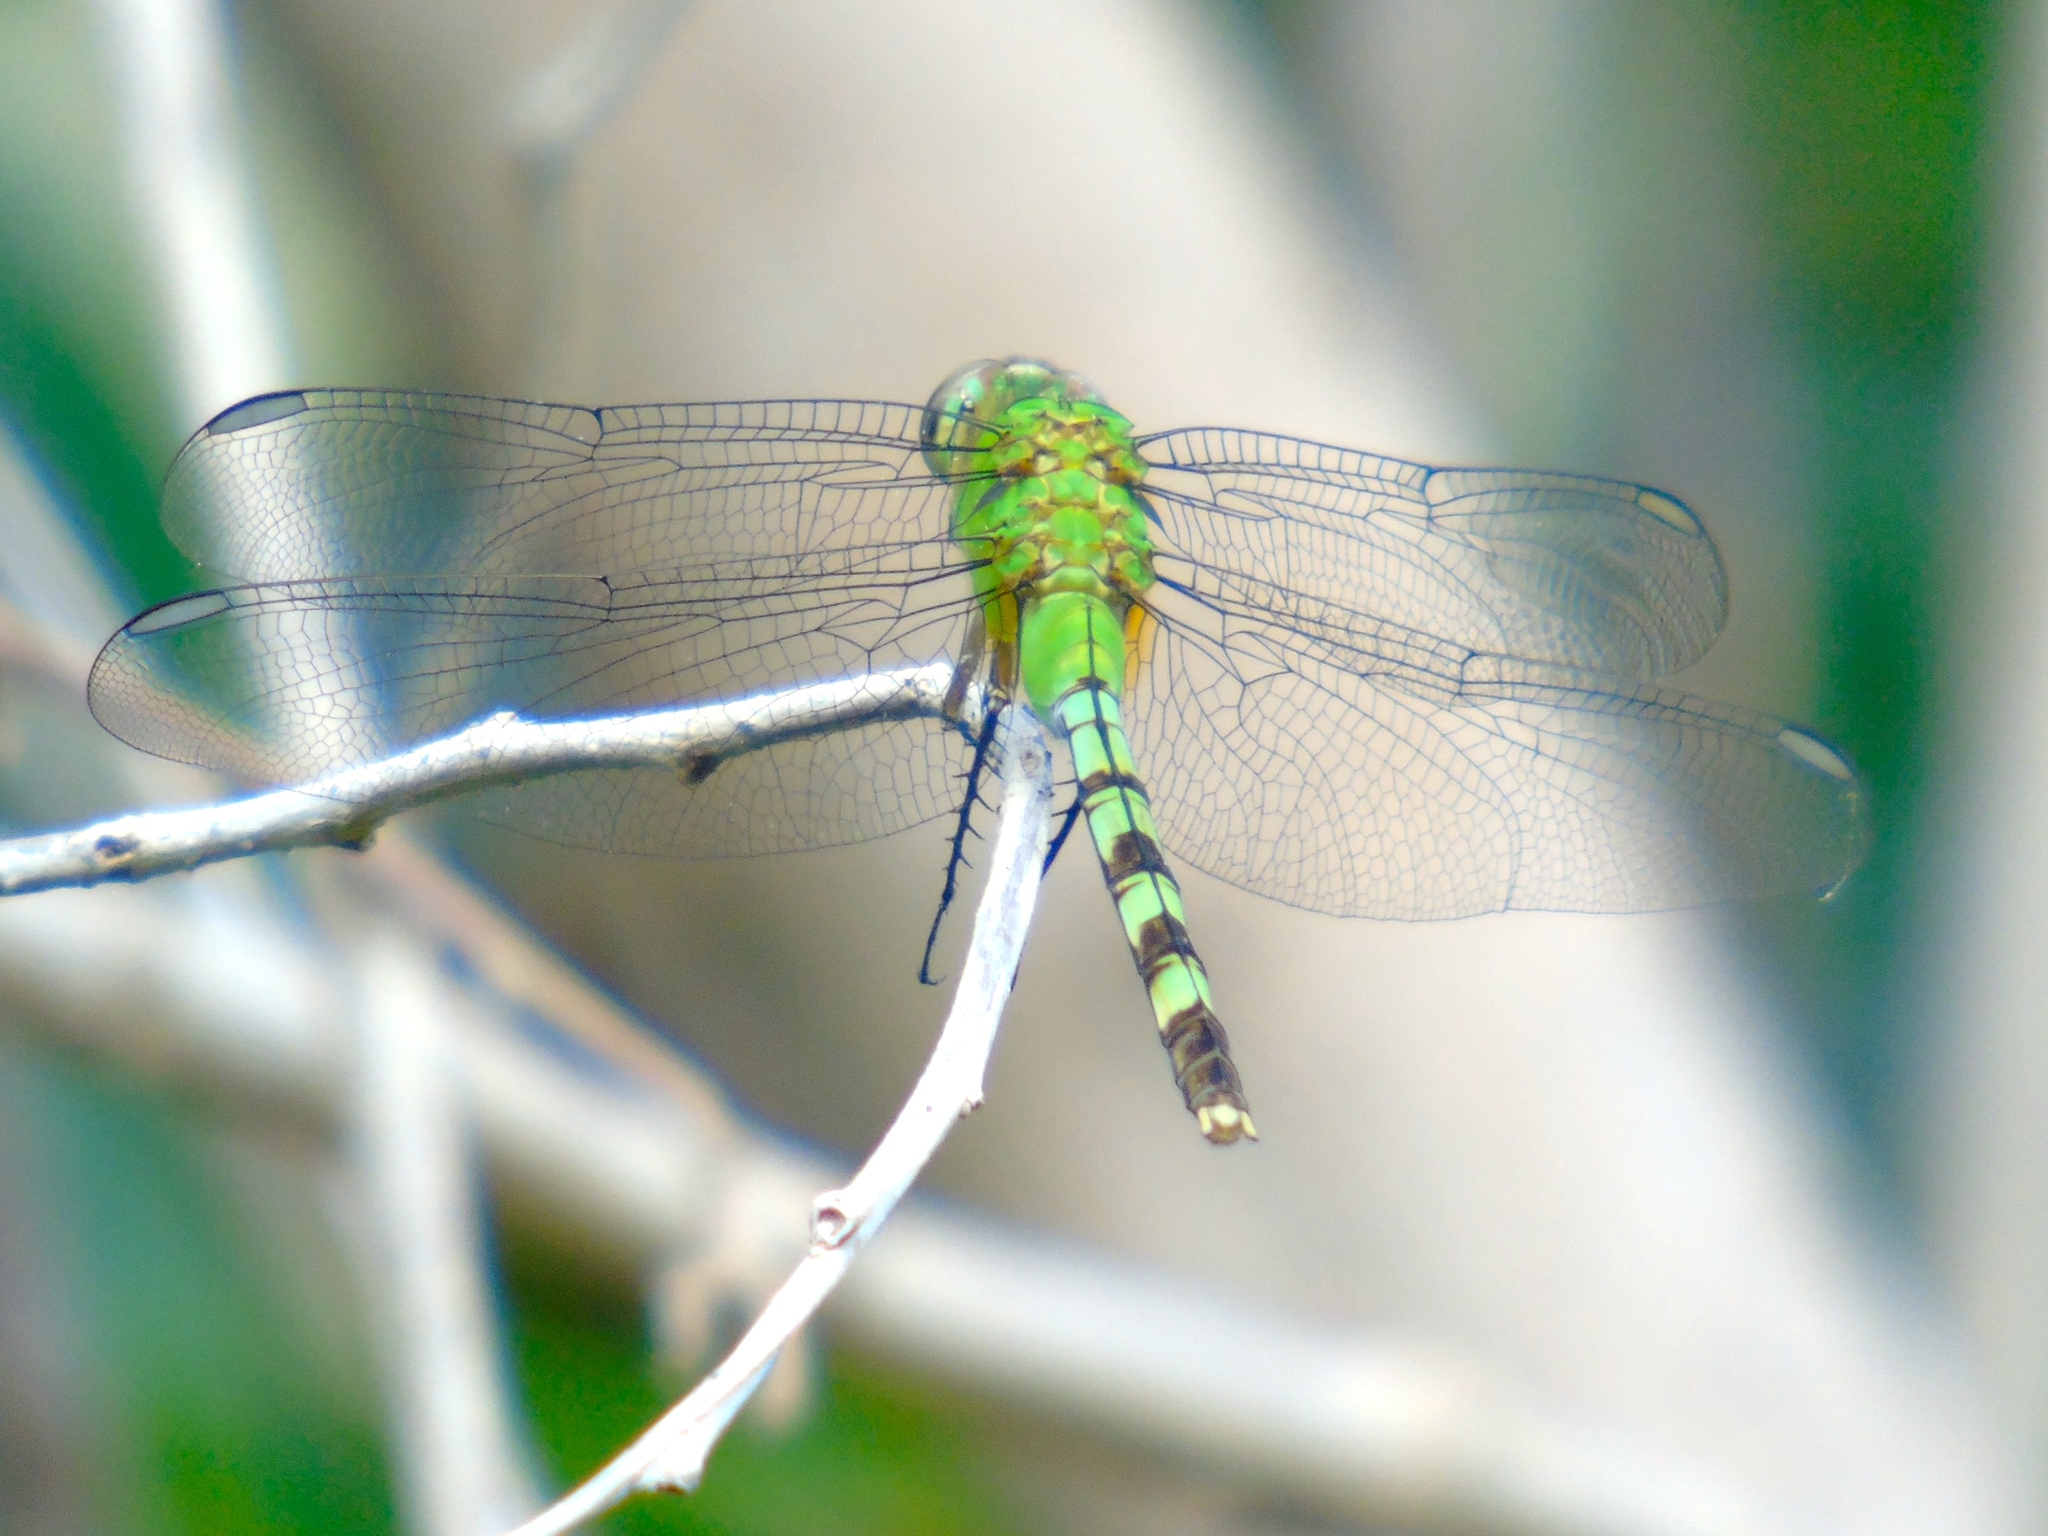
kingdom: Animalia
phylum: Arthropoda
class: Insecta
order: Odonata
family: Libellulidae
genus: Erythemis
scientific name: Erythemis vesiculosa
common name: Great pondhawk
